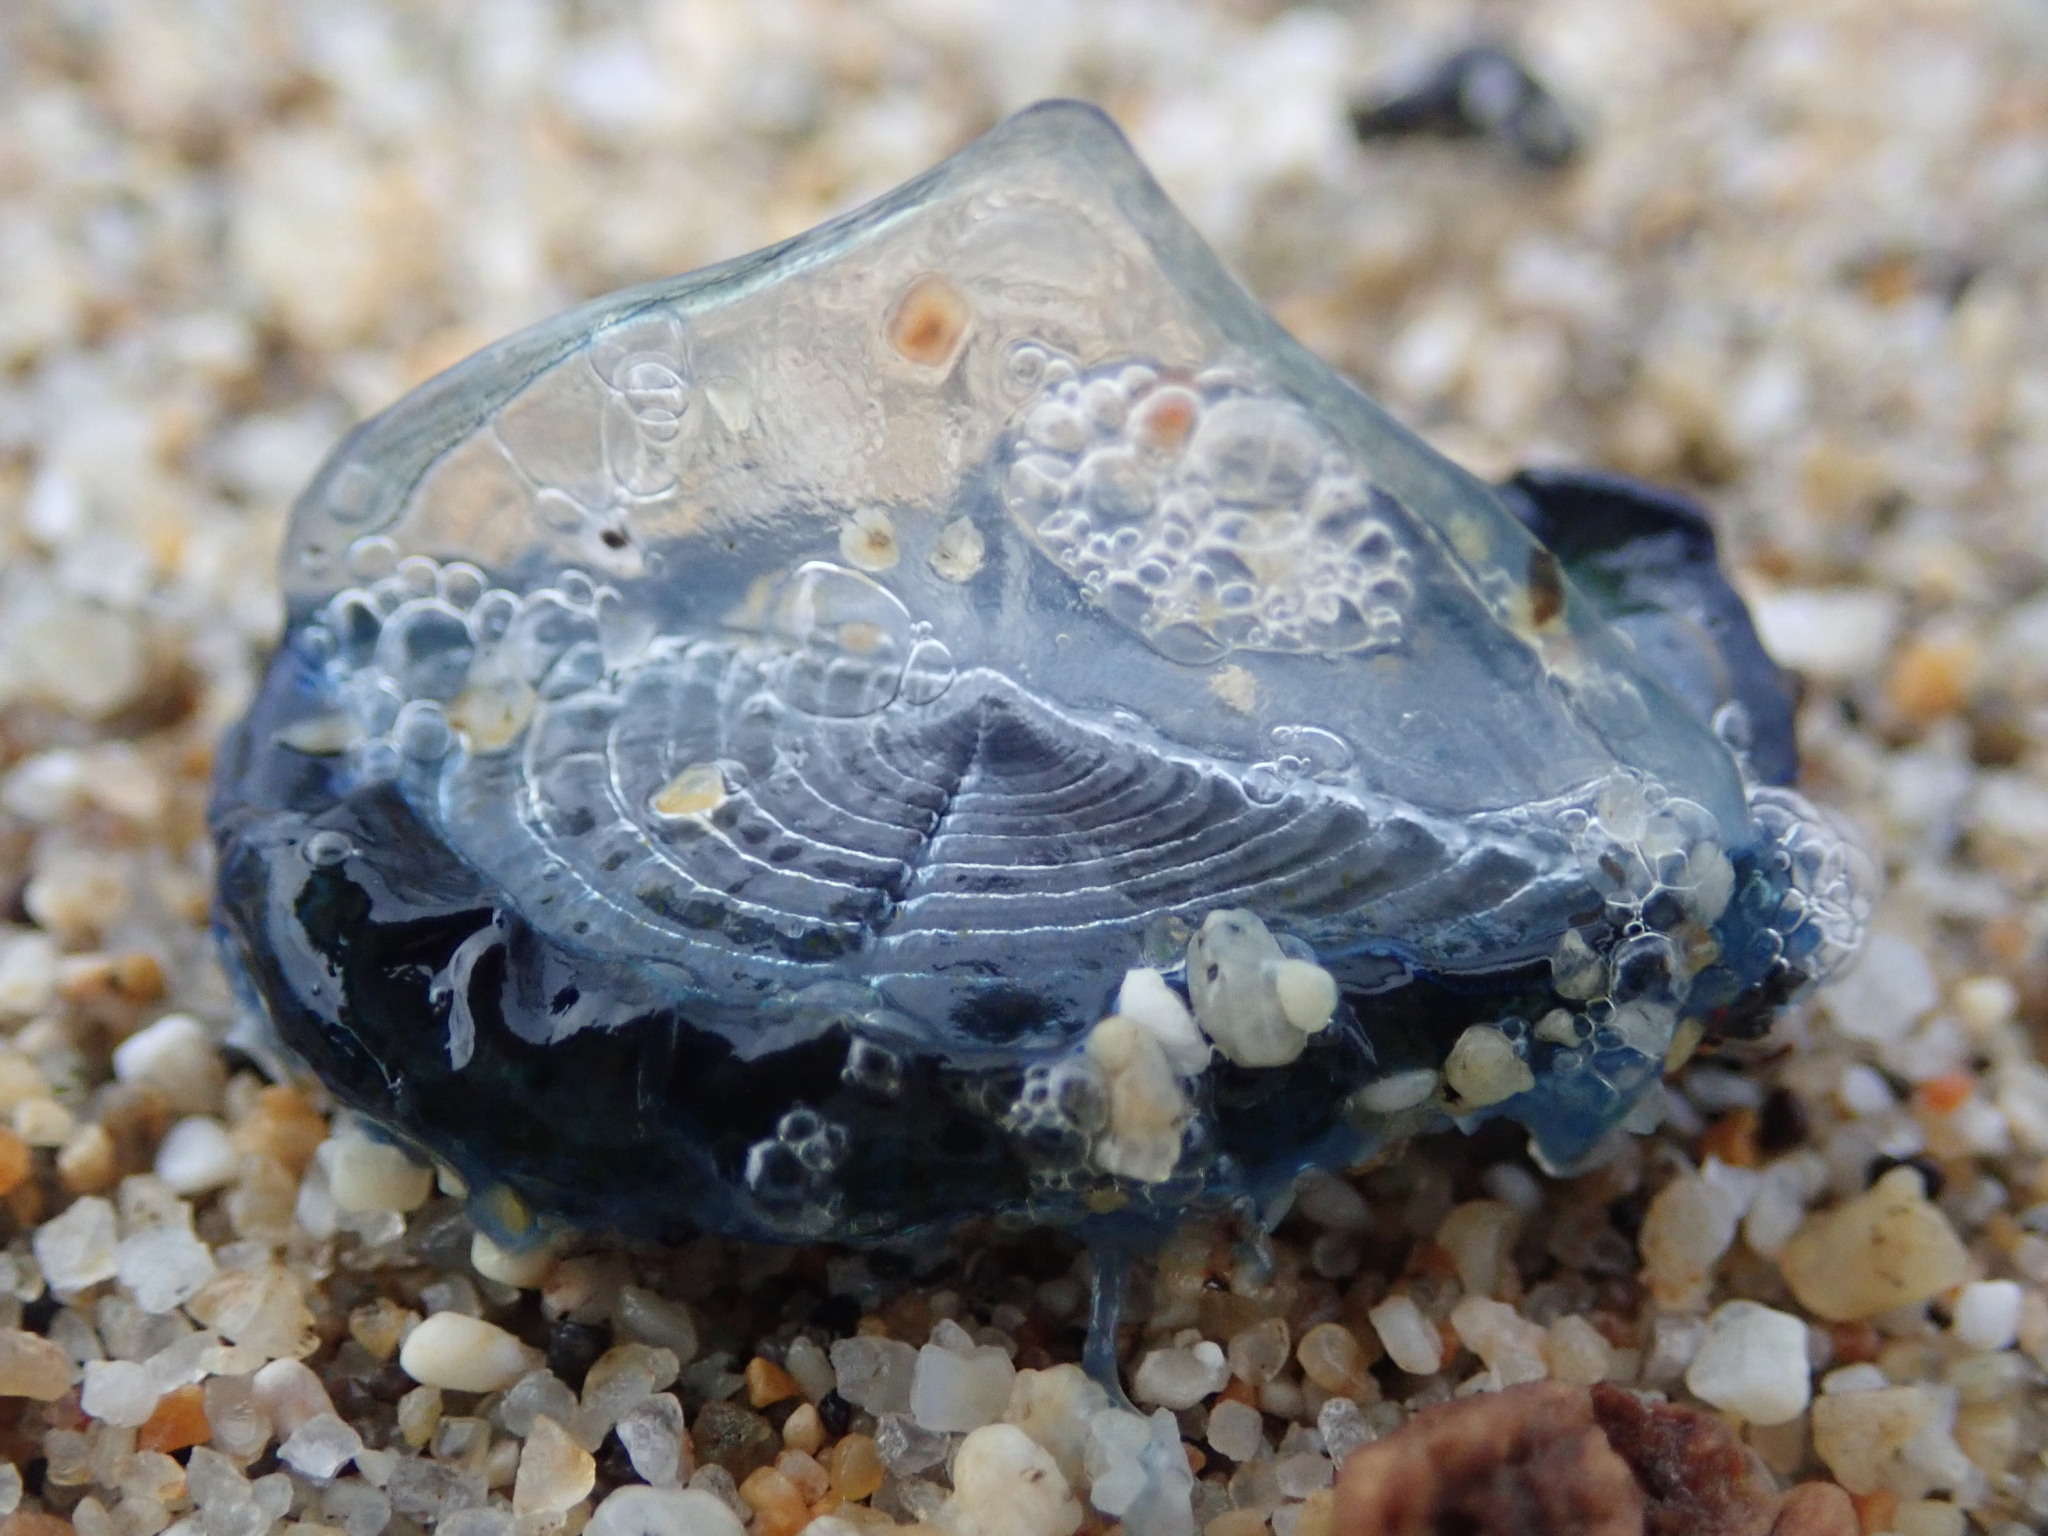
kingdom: Animalia
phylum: Cnidaria
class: Hydrozoa
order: Anthoathecata
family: Porpitidae
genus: Velella
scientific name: Velella velella
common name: By-the-wind-sailor
